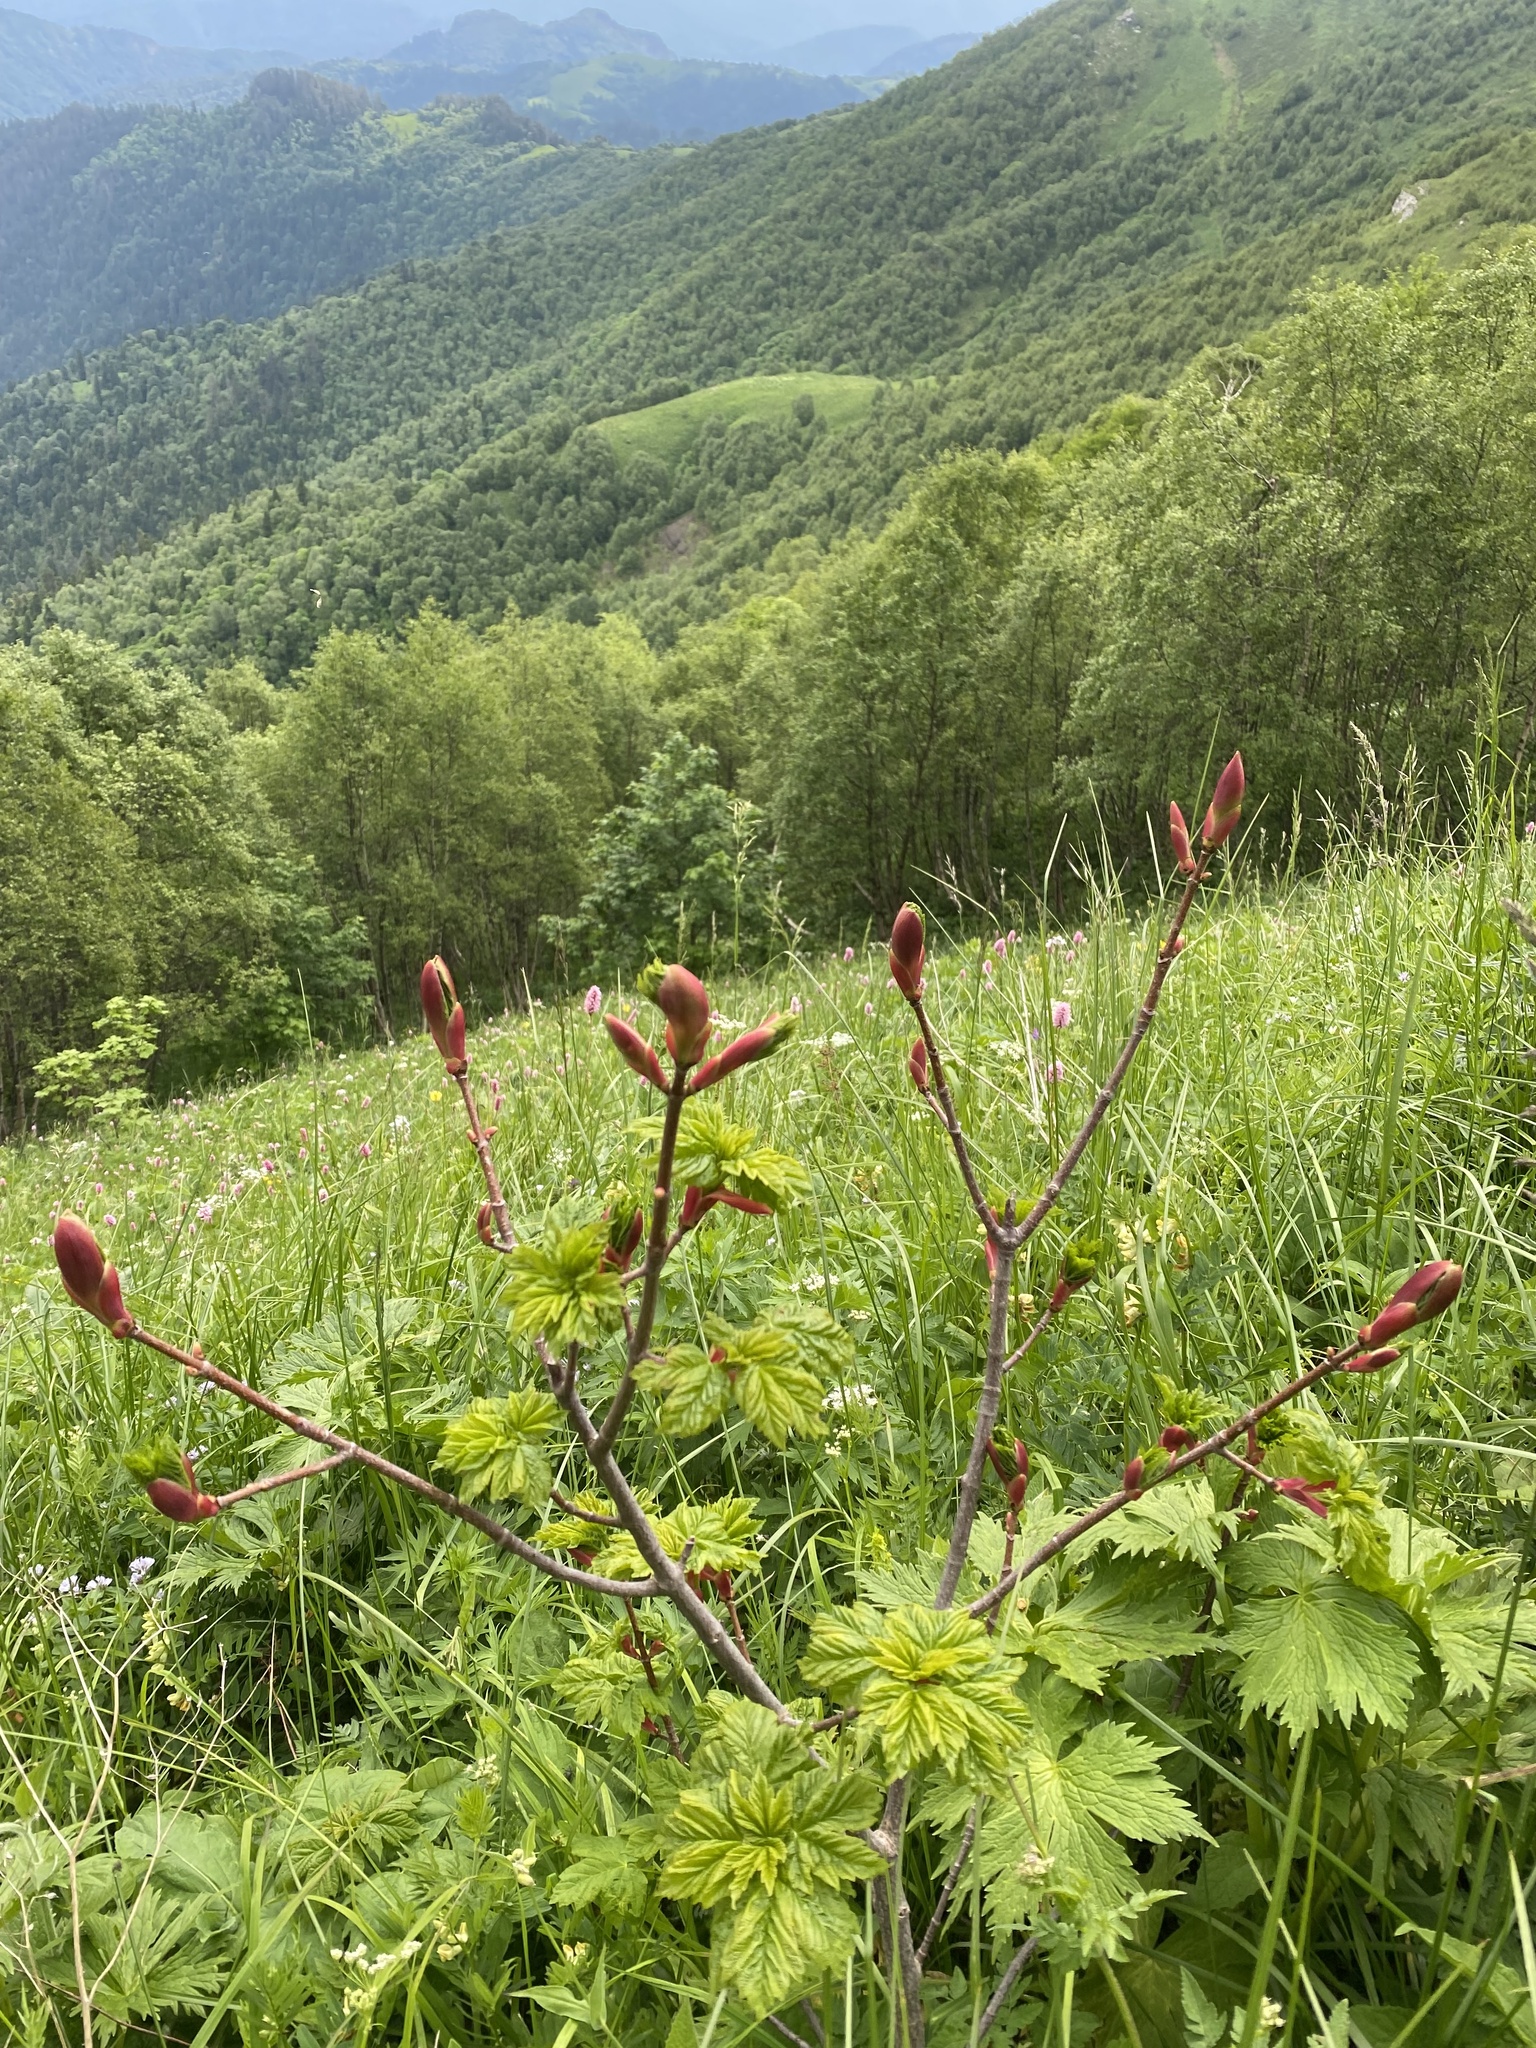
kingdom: Plantae
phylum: Tracheophyta
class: Magnoliopsida
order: Sapindales
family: Sapindaceae
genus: Acer
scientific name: Acer heldreichii
